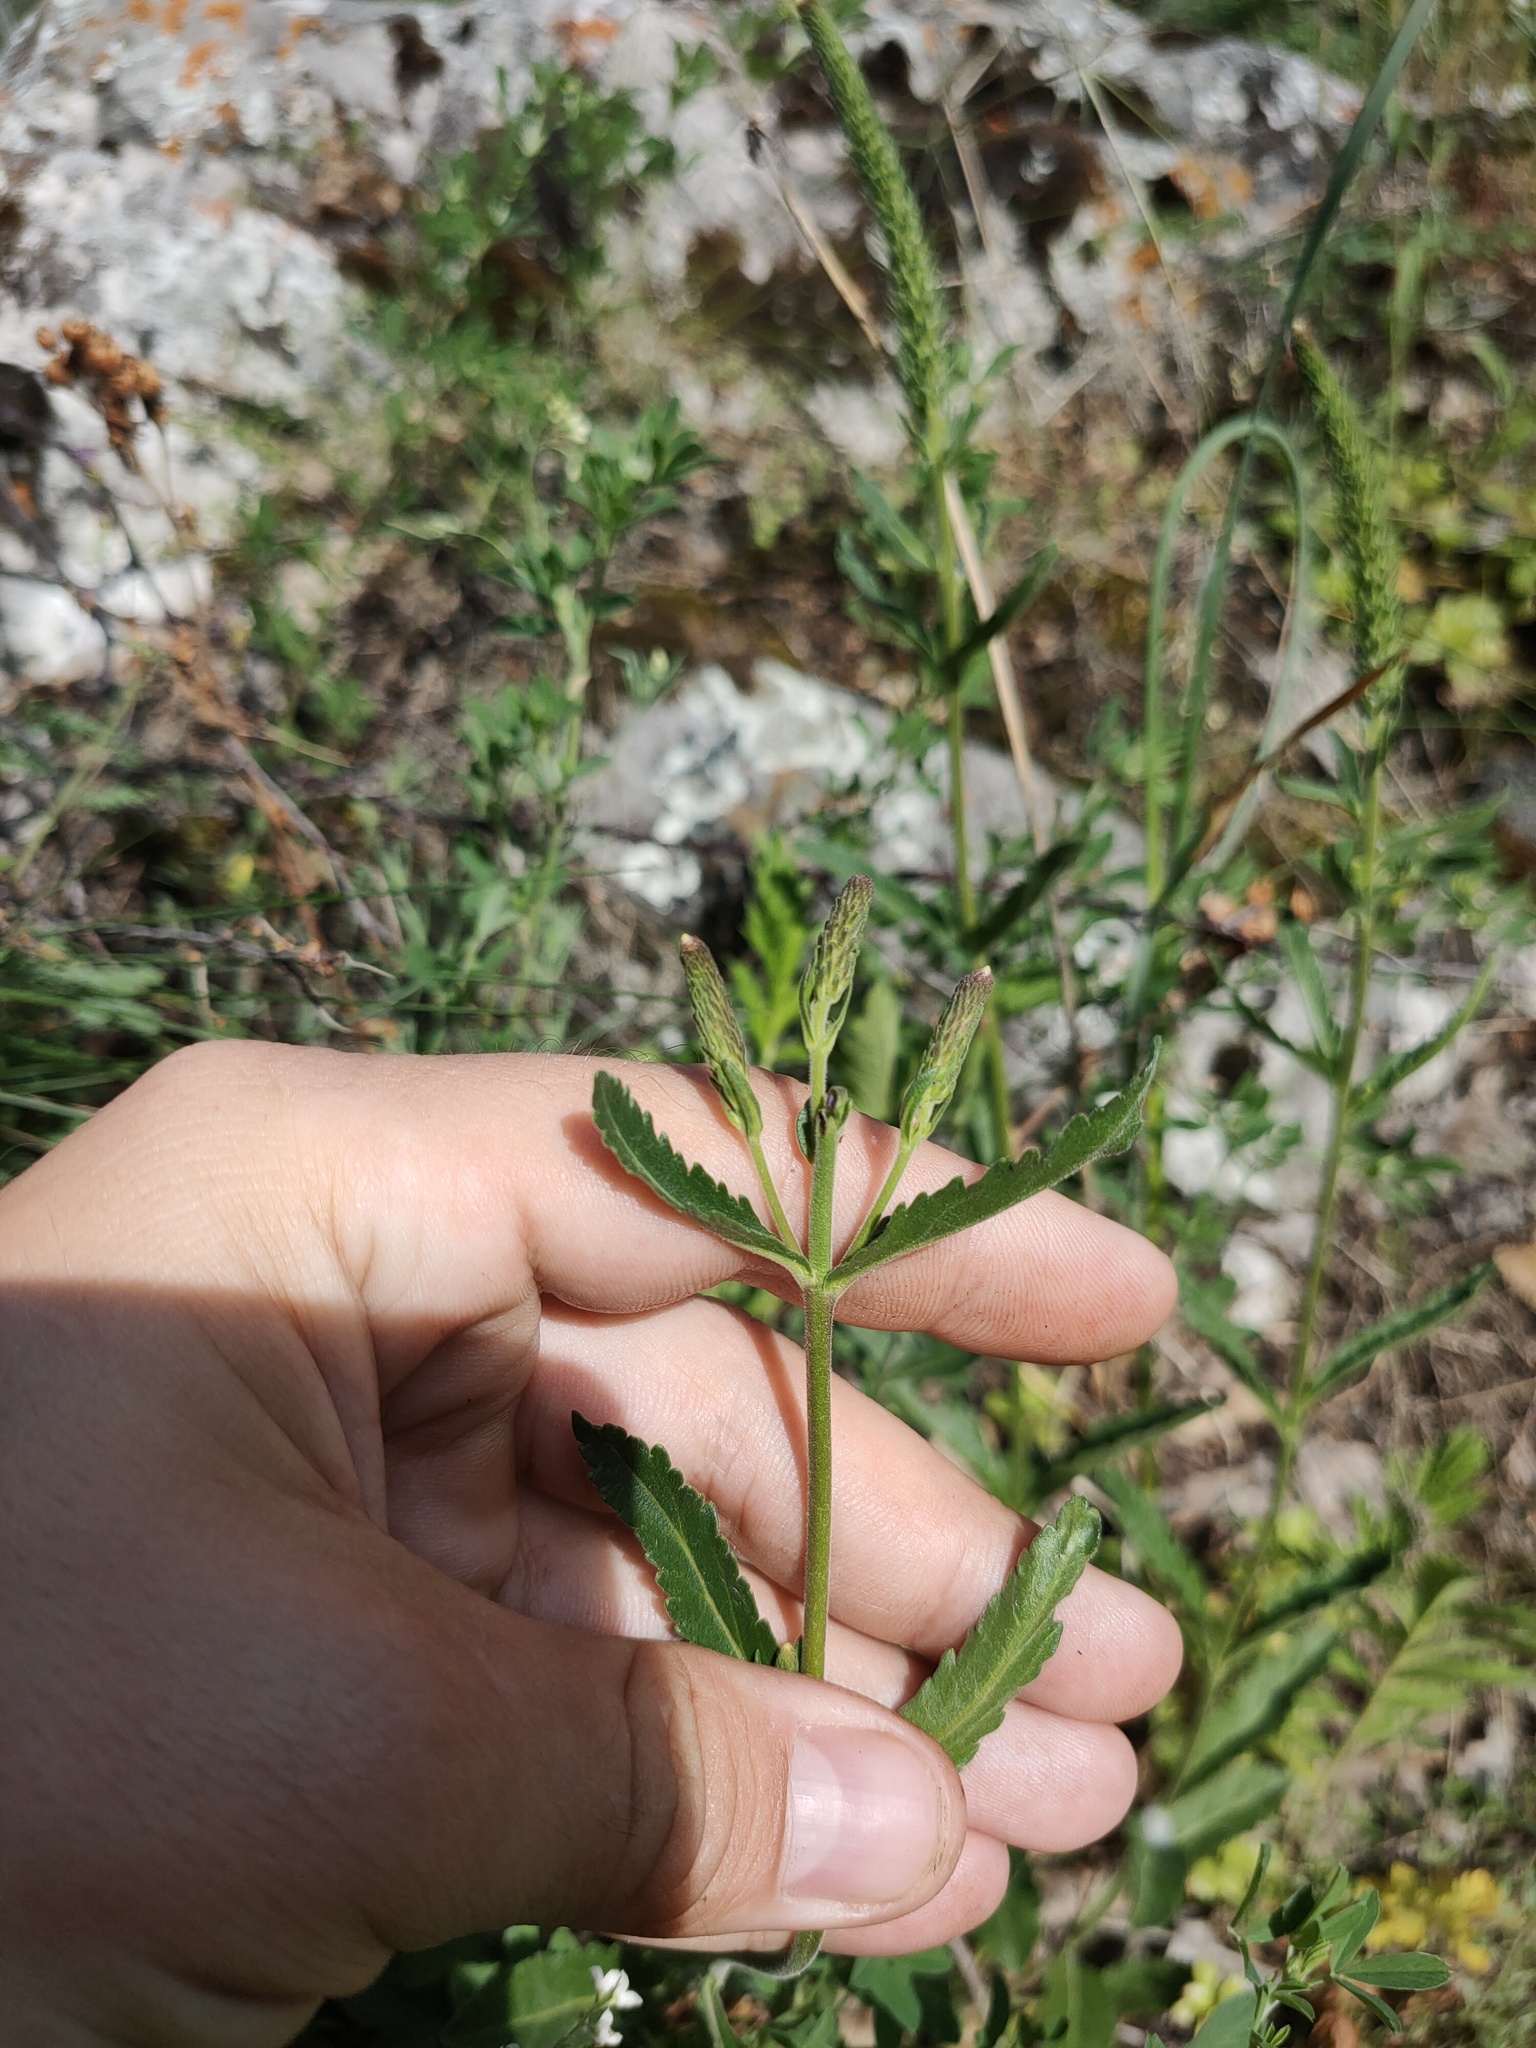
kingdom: Plantae
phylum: Tracheophyta
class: Magnoliopsida
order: Lamiales
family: Plantaginaceae
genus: Veronica
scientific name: Veronica spicata
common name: Spiked speedwell
